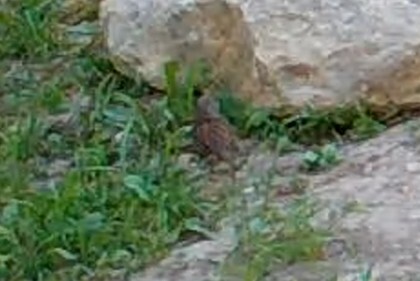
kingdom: Animalia
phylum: Chordata
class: Aves
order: Passeriformes
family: Prunellidae
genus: Prunella
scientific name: Prunella modularis
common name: Dunnock
